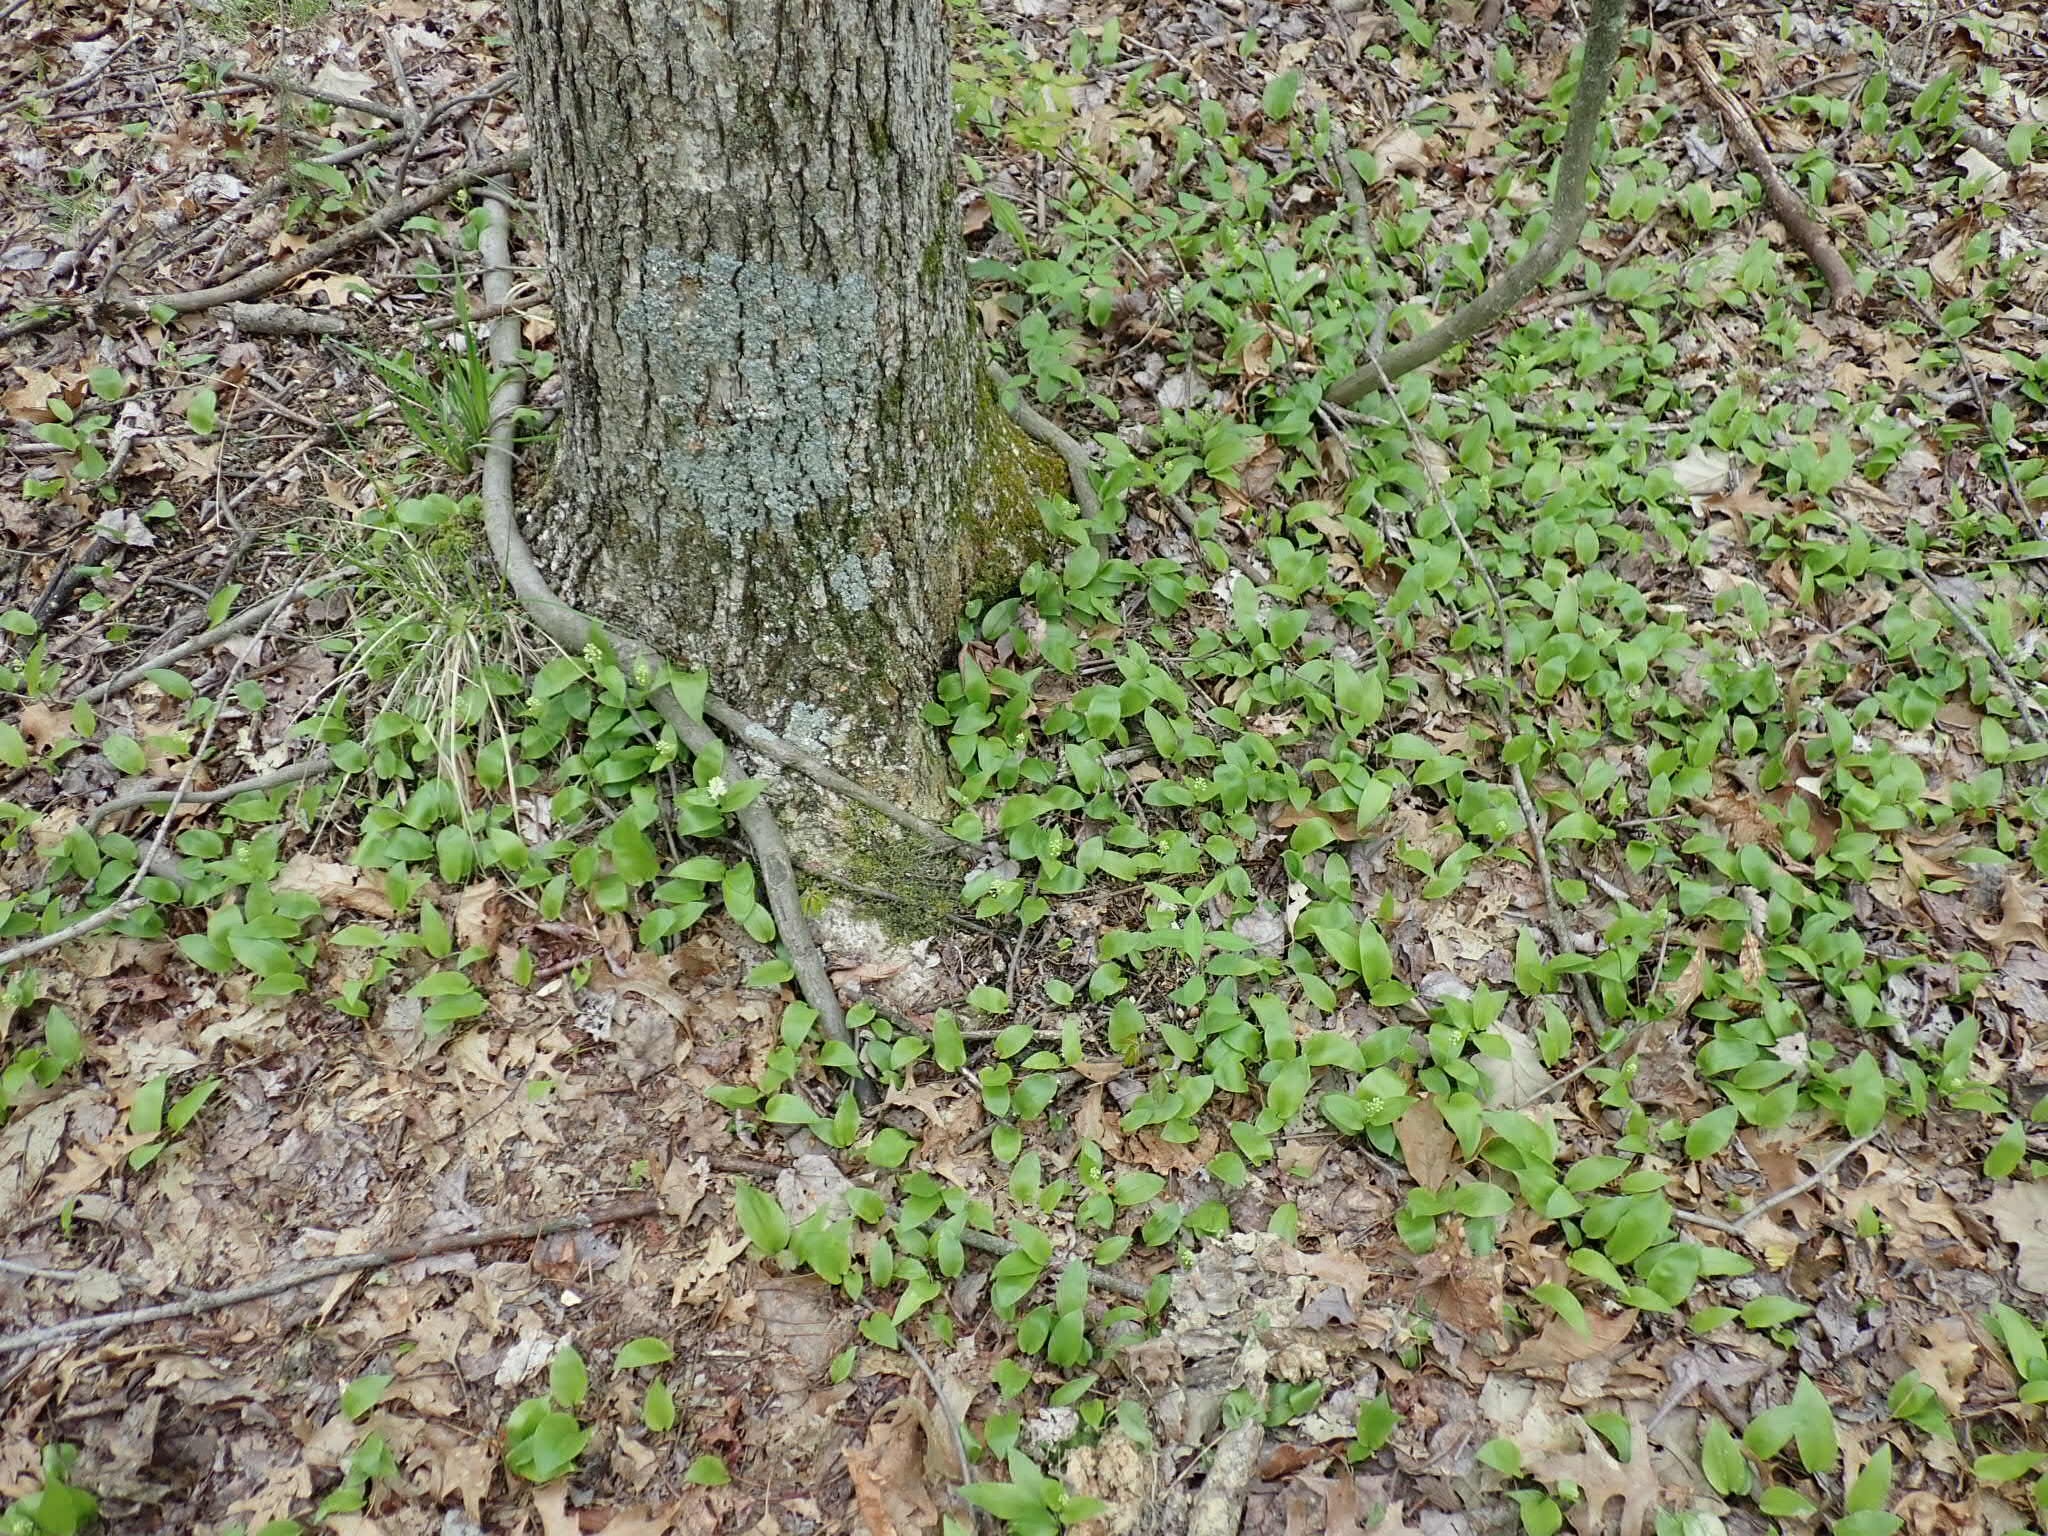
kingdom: Plantae
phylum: Tracheophyta
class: Liliopsida
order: Asparagales
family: Asparagaceae
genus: Maianthemum
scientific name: Maianthemum canadense
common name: False lily-of-the-valley
